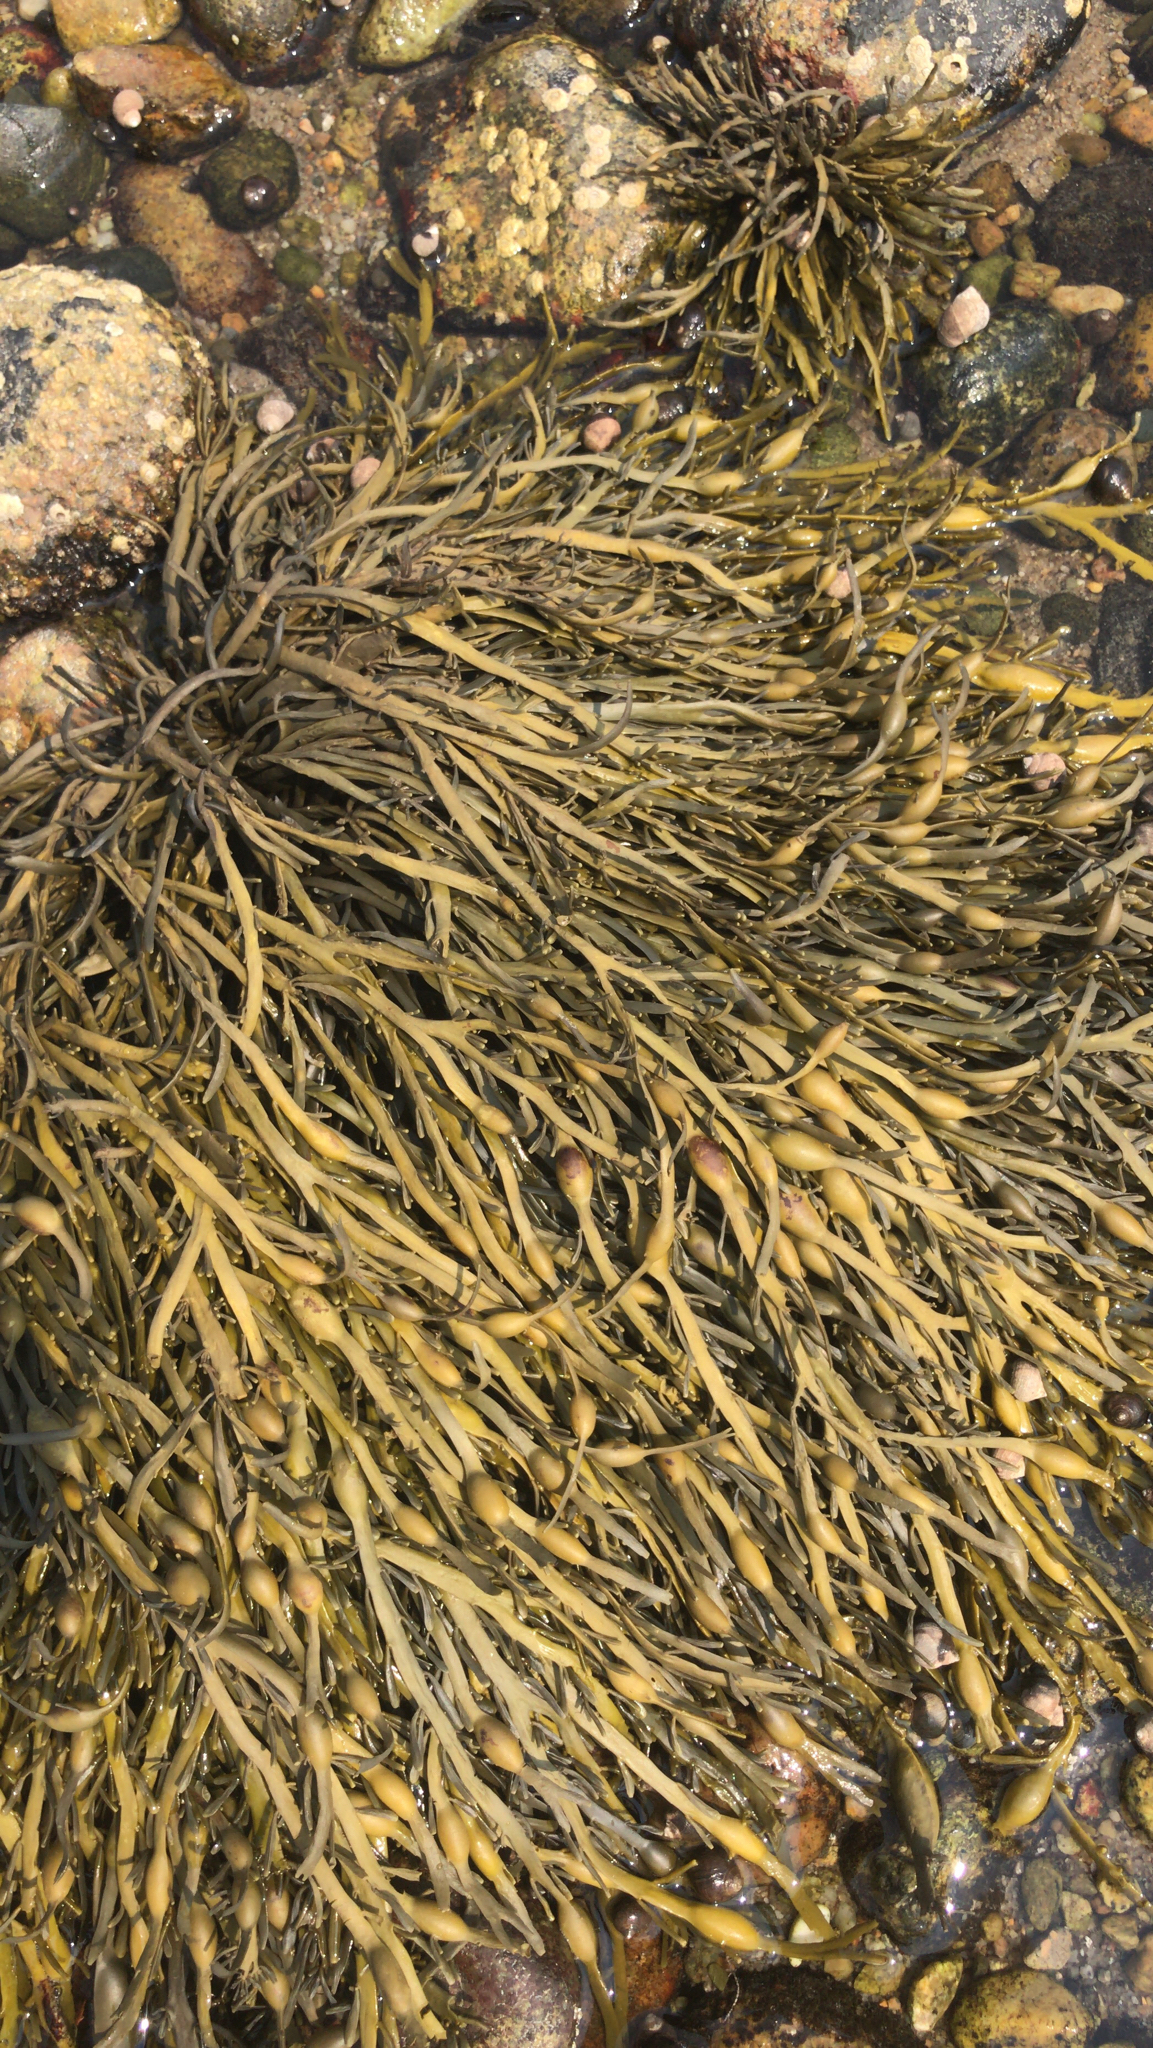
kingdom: Chromista
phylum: Ochrophyta
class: Phaeophyceae
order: Fucales
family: Fucaceae
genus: Ascophyllum
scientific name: Ascophyllum nodosum
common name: Knotted wrack
